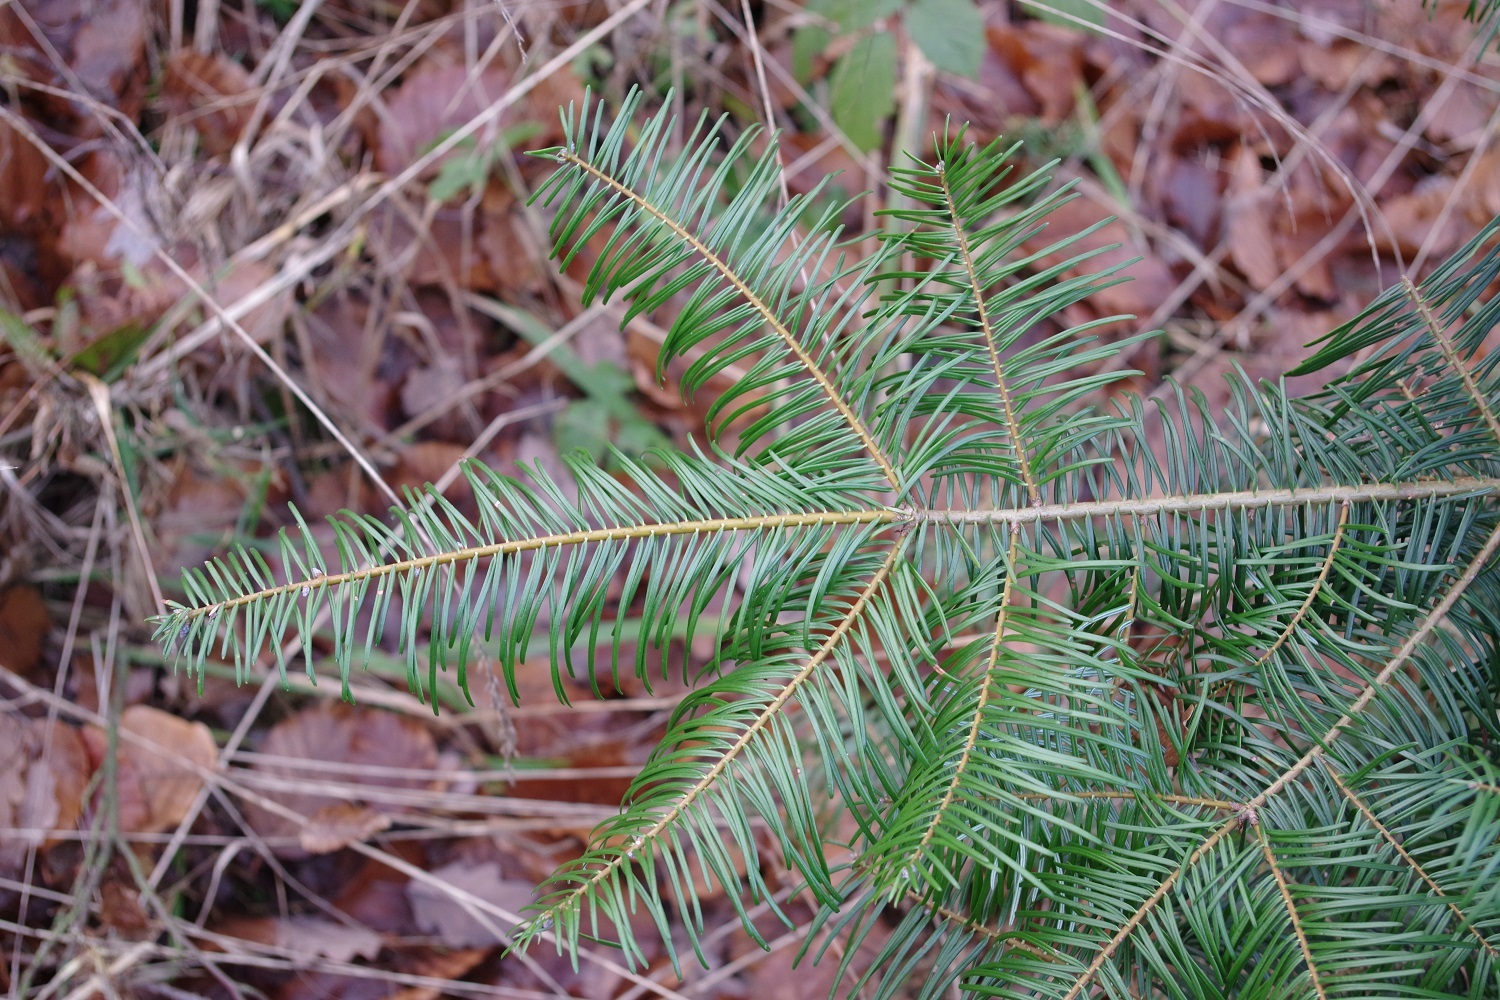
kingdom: Plantae
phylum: Tracheophyta
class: Pinopsida
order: Pinales
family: Pinaceae
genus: Abies
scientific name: Abies grandis
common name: Giant fir
